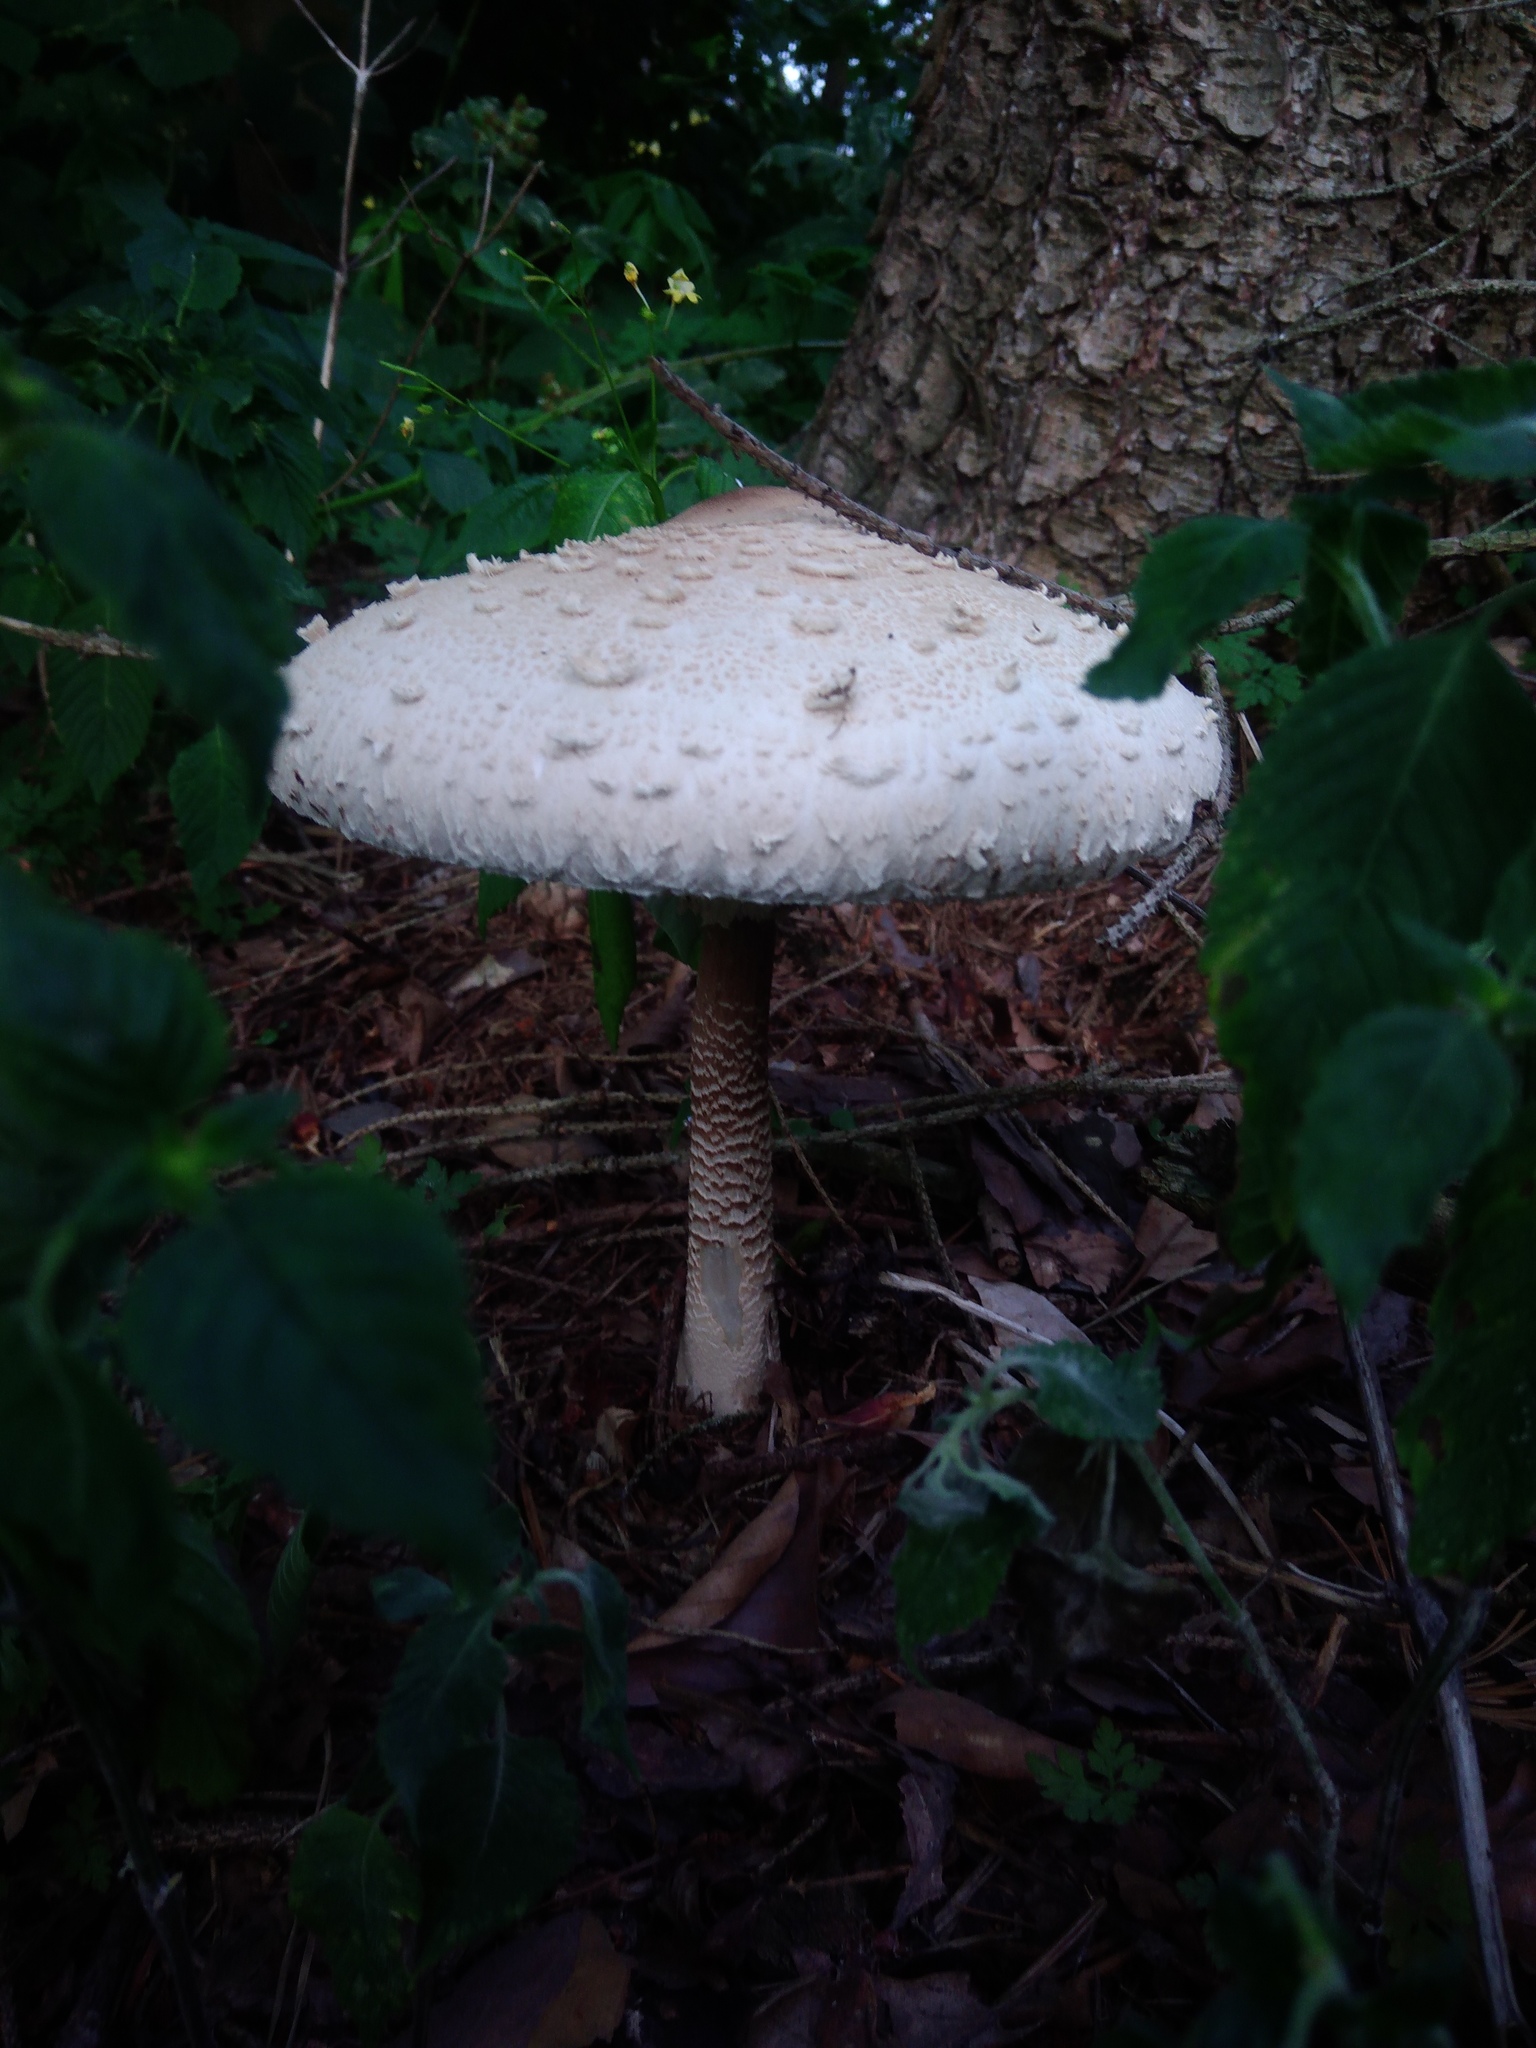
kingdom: Fungi
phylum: Basidiomycota
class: Agaricomycetes
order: Agaricales
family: Agaricaceae
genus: Macrolepiota
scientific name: Macrolepiota procera
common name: Parasol
